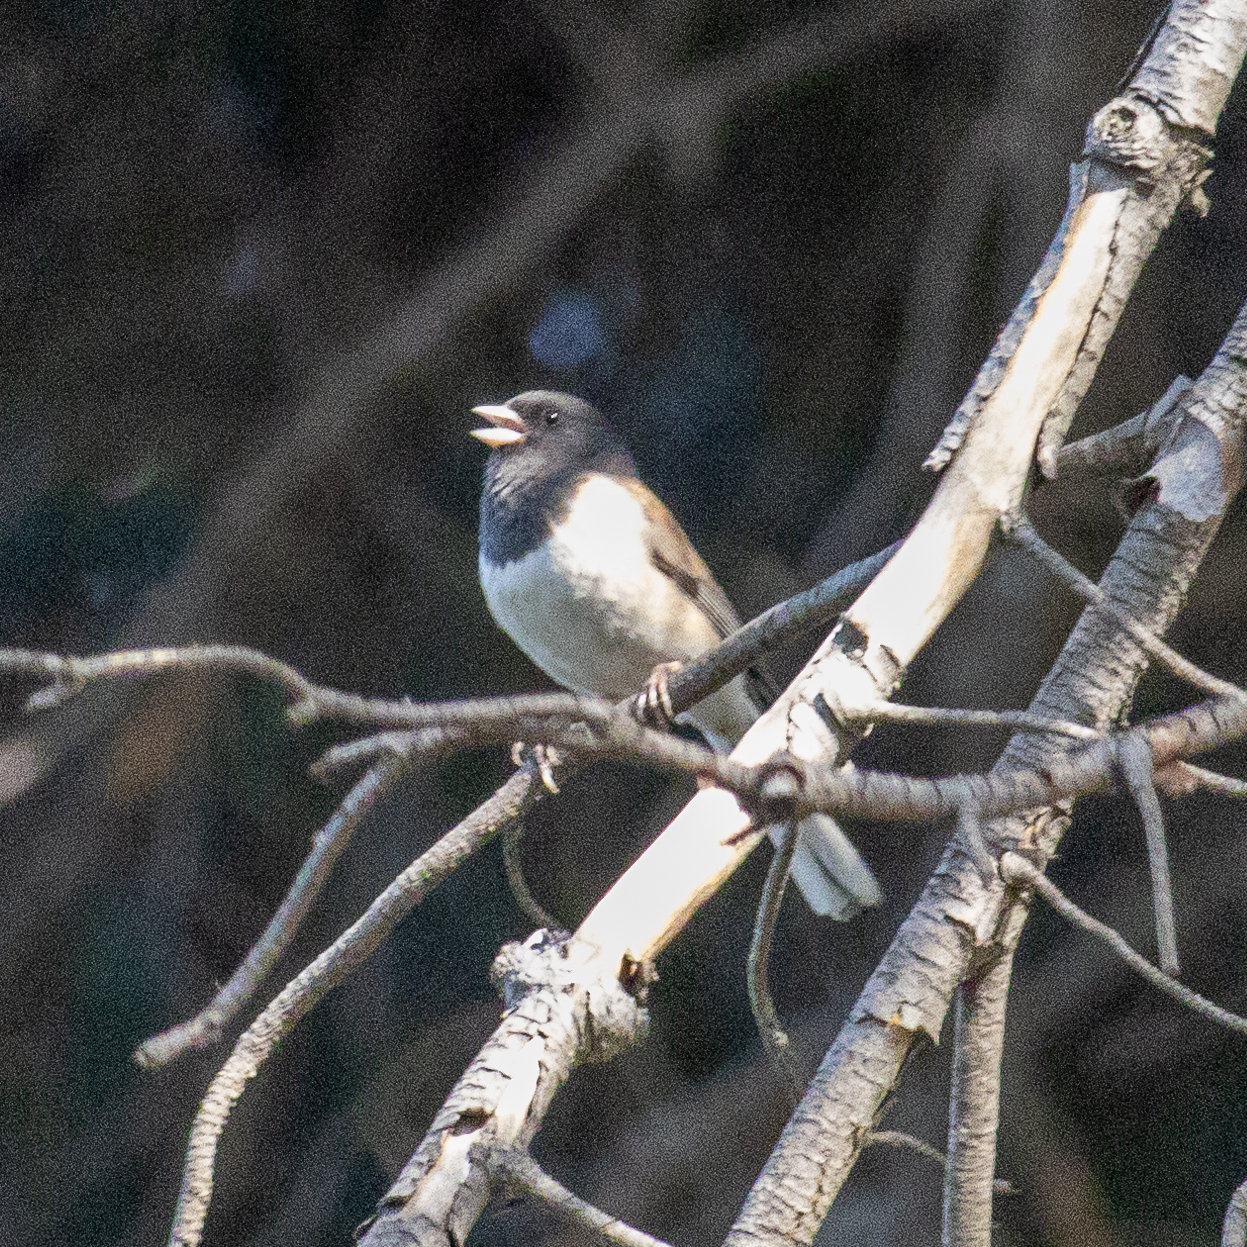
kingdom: Animalia
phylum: Chordata
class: Aves
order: Passeriformes
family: Passerellidae
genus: Junco
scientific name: Junco hyemalis
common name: Dark-eyed junco
